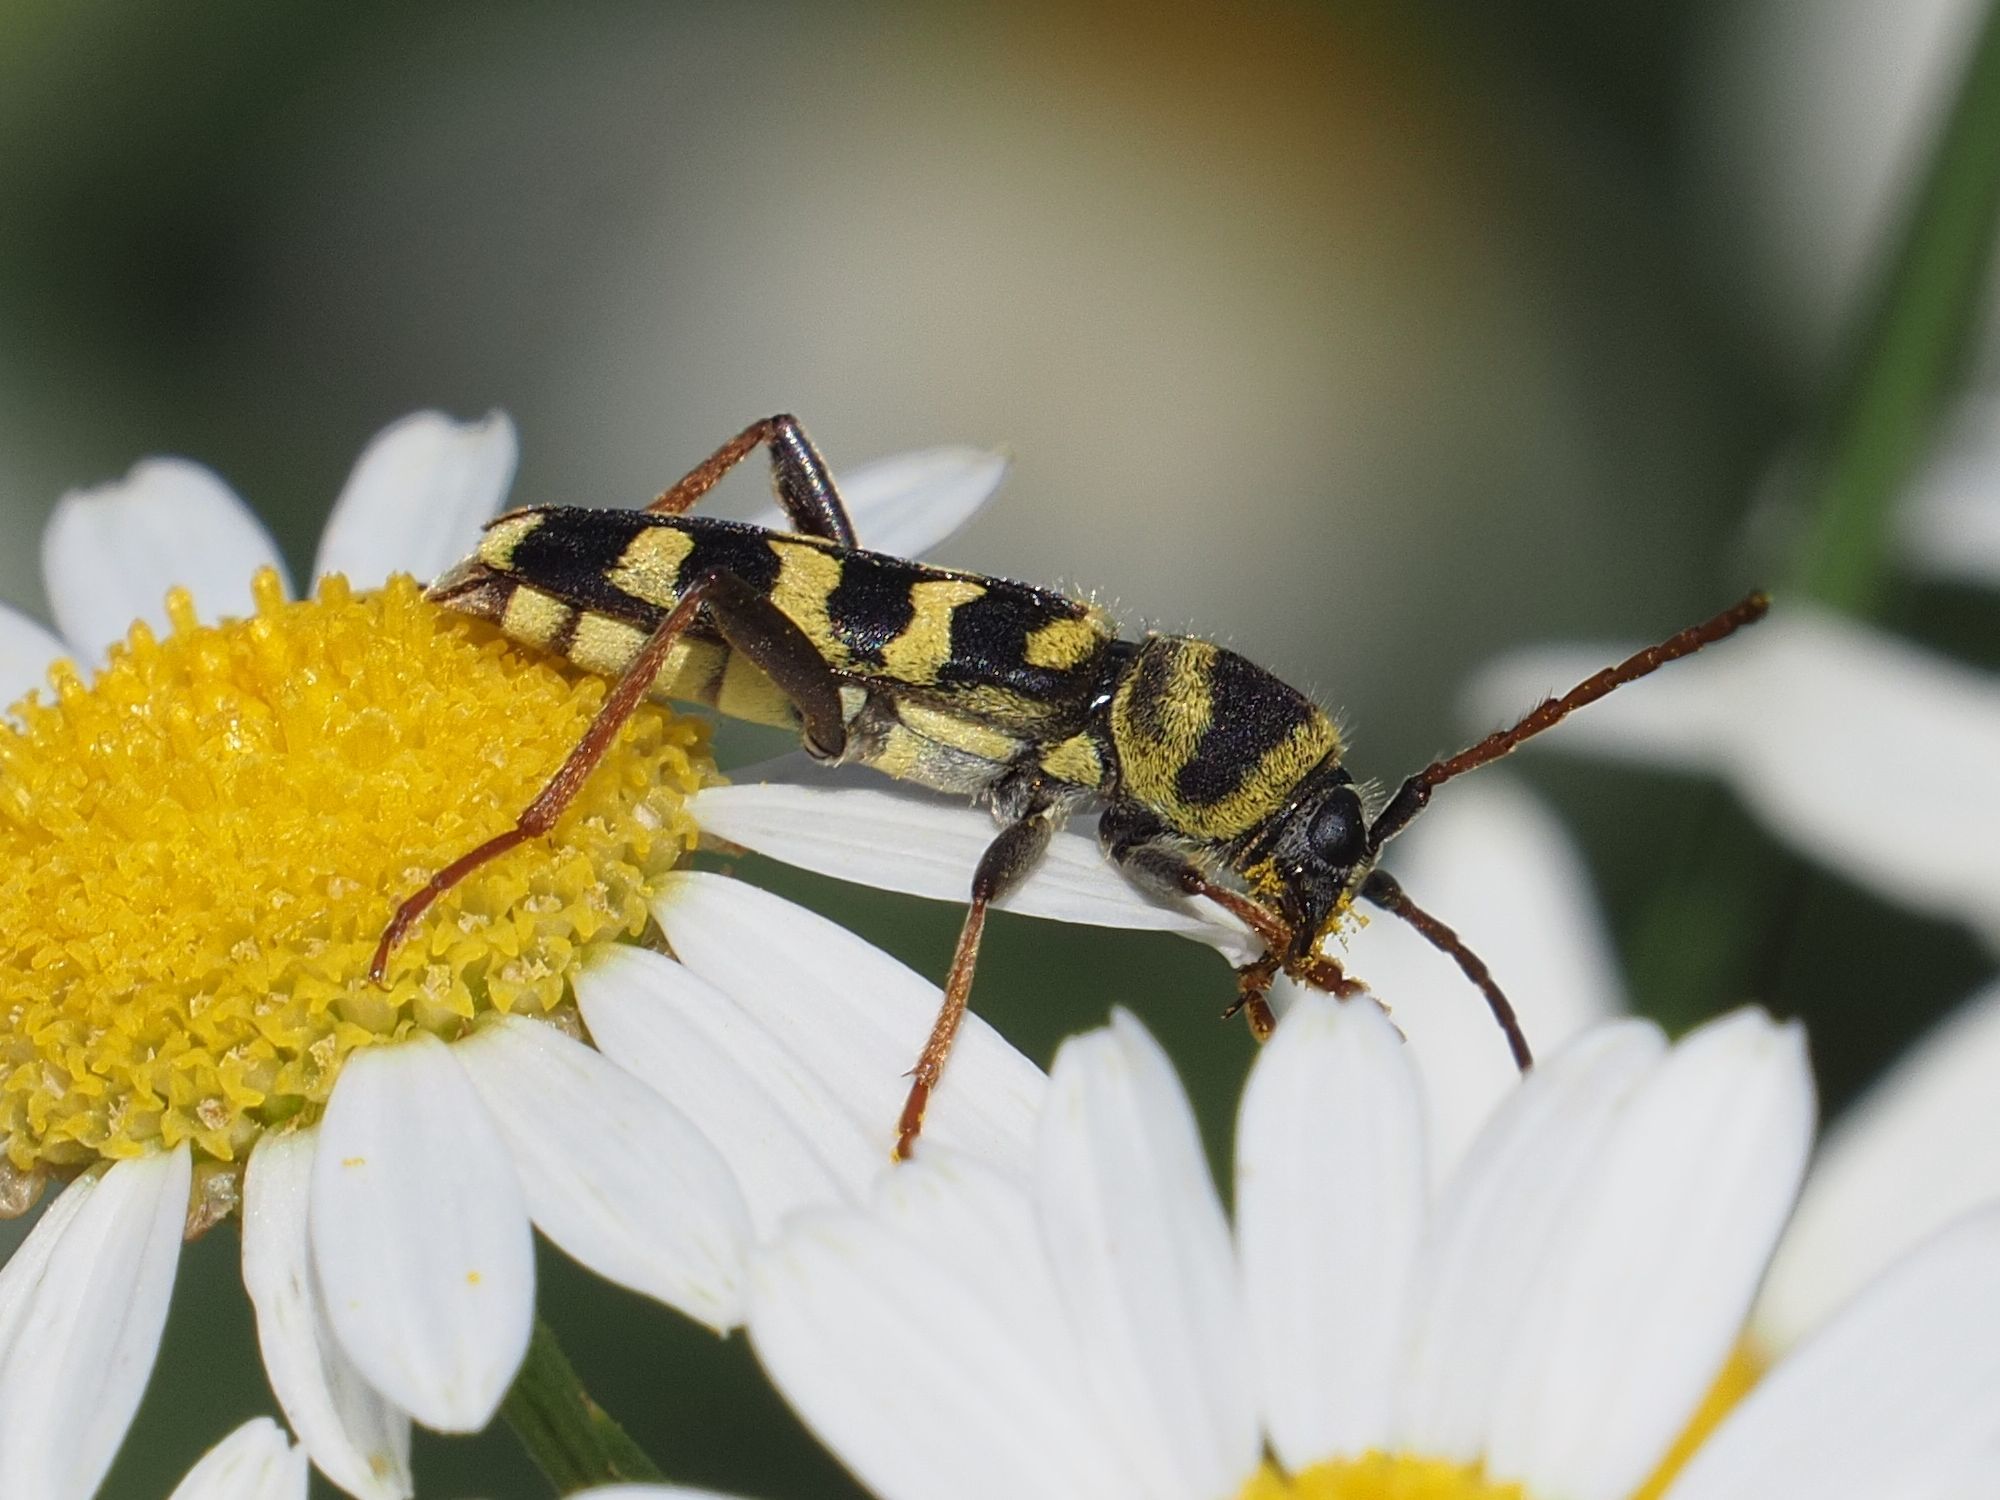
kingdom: Animalia
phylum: Arthropoda
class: Insecta
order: Coleoptera
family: Cerambycidae
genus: Plagionotus
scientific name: Plagionotus floralis
